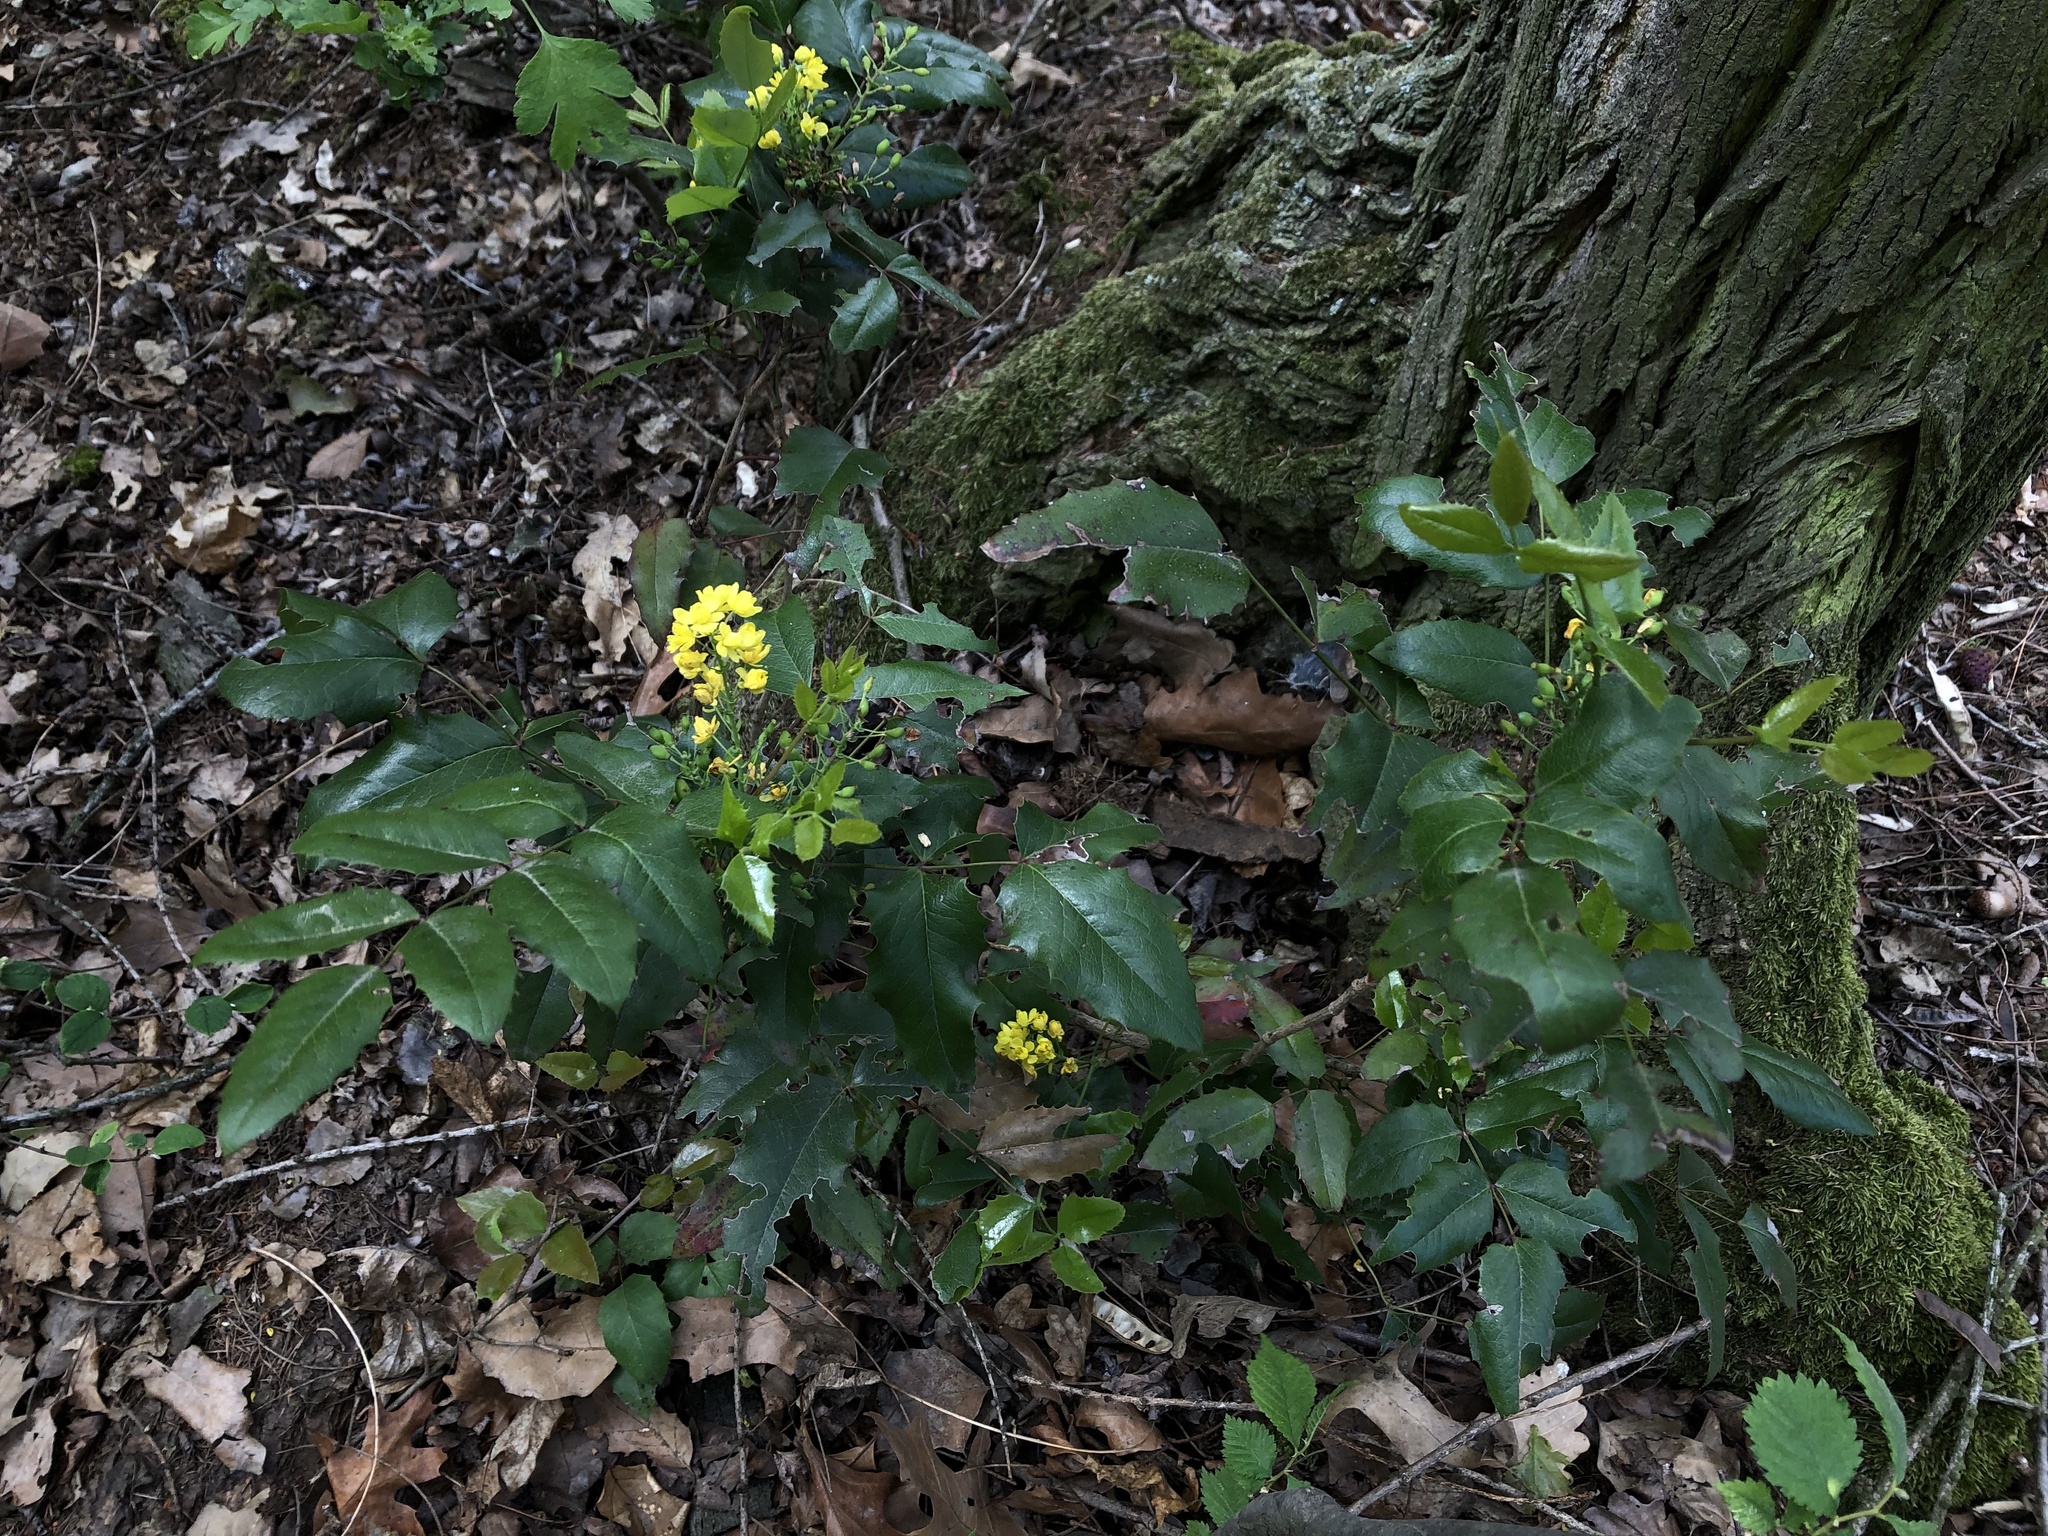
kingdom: Plantae
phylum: Tracheophyta
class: Magnoliopsida
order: Ranunculales
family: Berberidaceae
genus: Mahonia
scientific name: Mahonia aquifolium
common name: Oregon-grape
